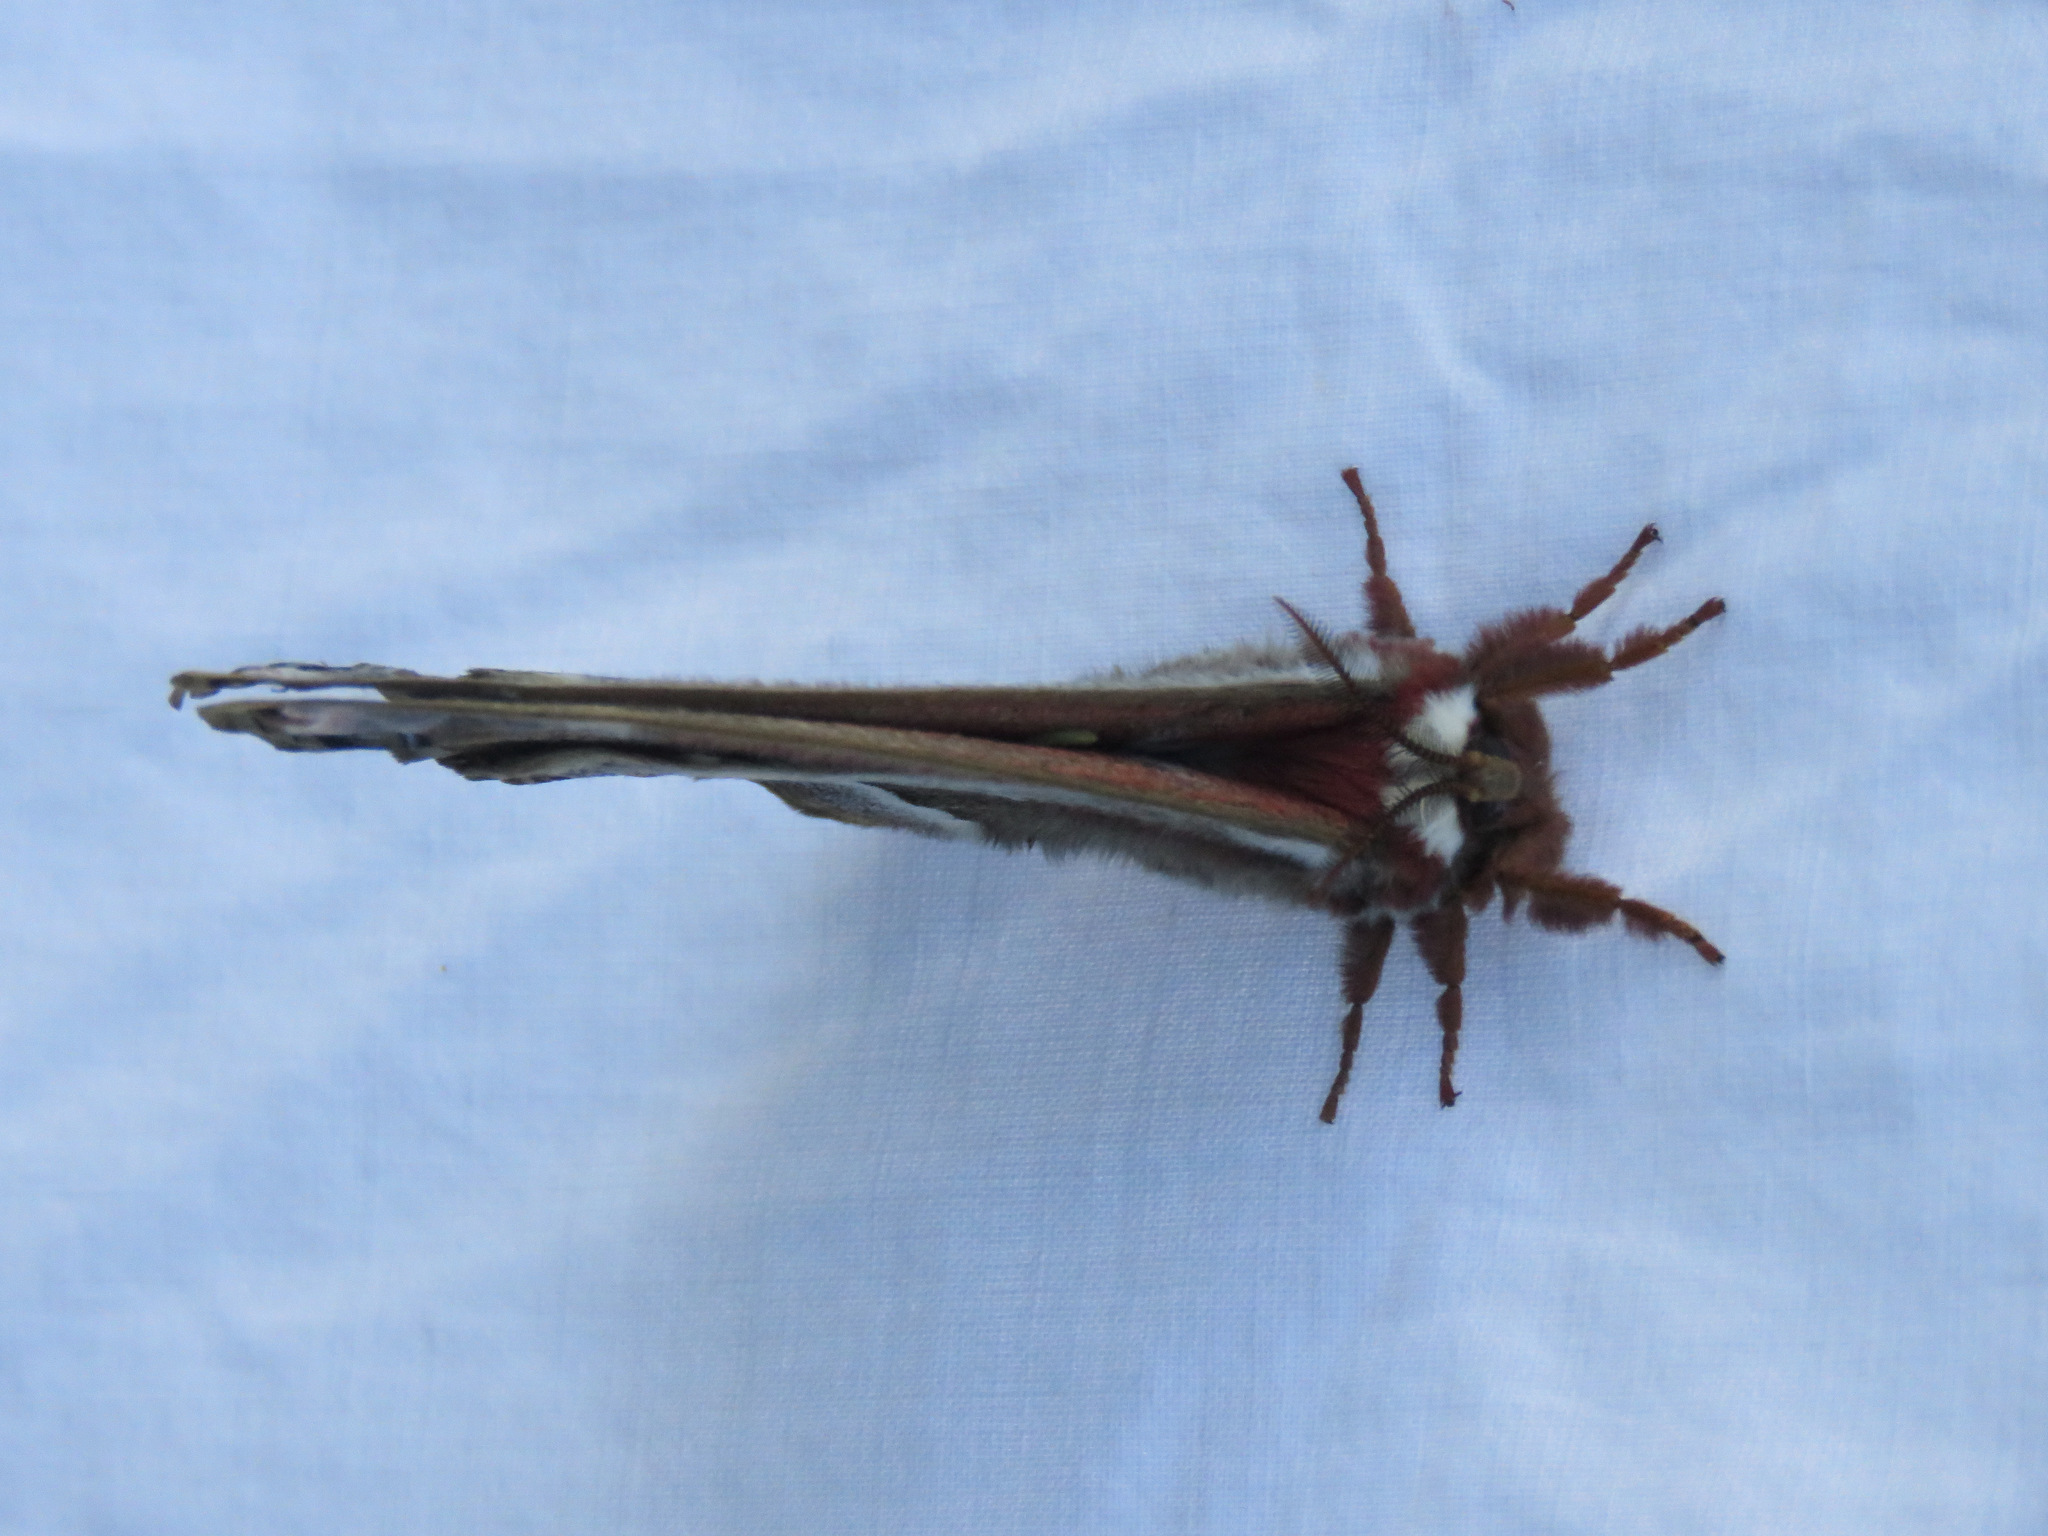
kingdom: Animalia
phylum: Arthropoda
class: Insecta
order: Lepidoptera
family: Saturniidae
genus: Hyalophora
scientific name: Hyalophora euryalus
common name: Ceanothus silkmoth
